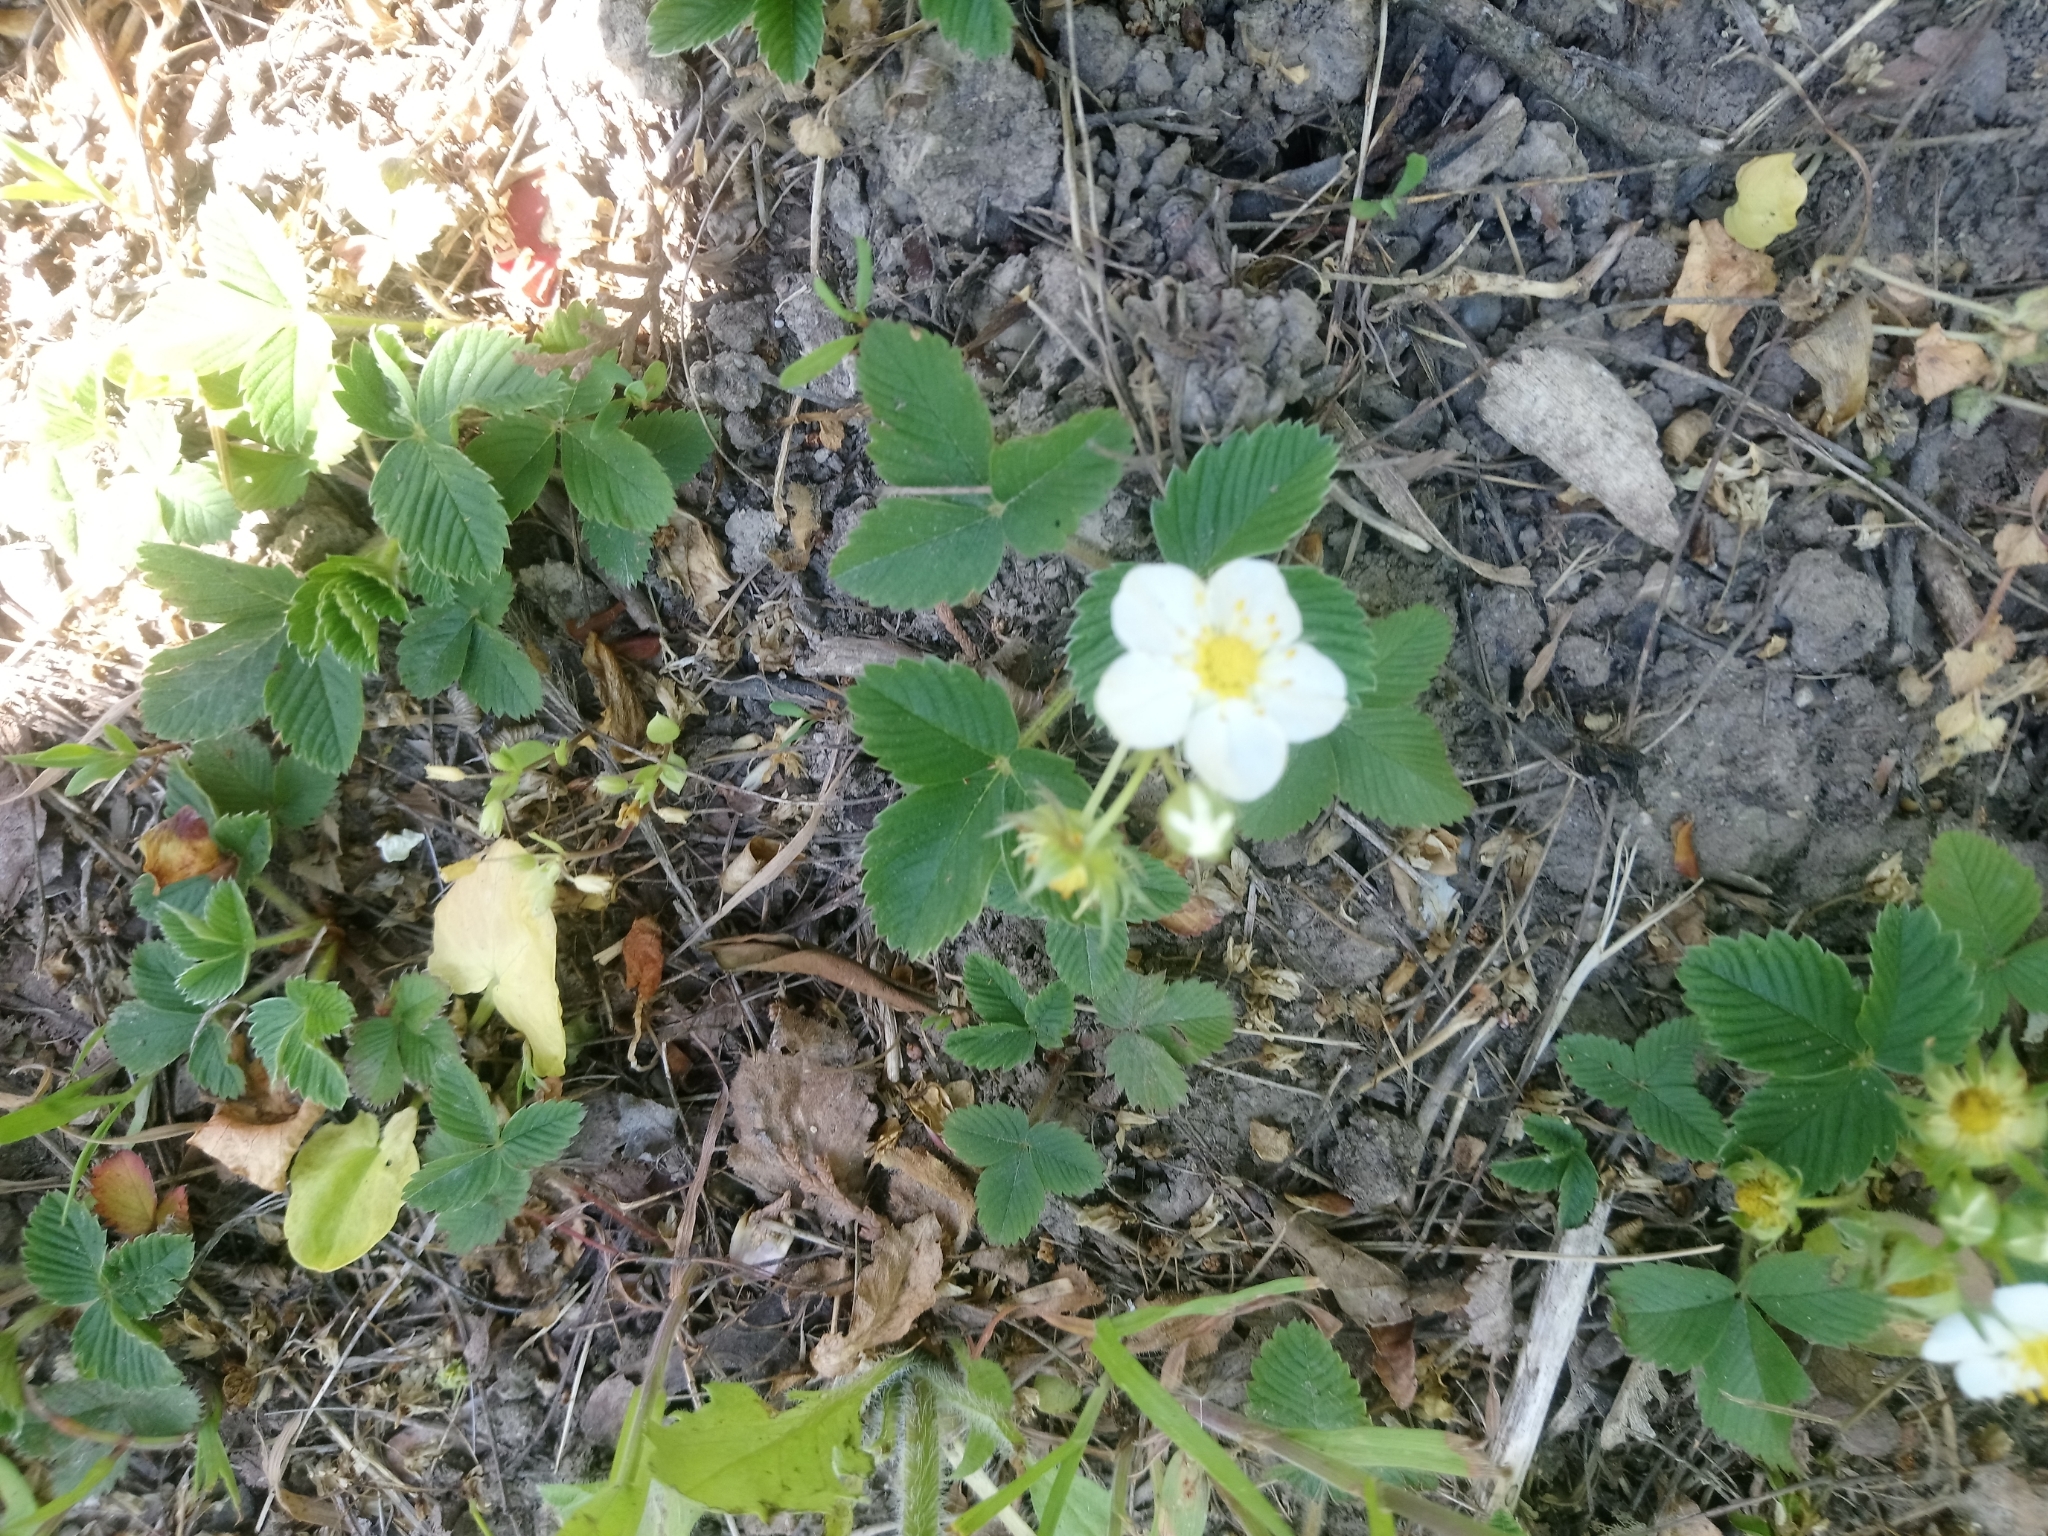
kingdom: Plantae
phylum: Tracheophyta
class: Magnoliopsida
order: Rosales
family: Rosaceae
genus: Fragaria
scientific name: Fragaria viridis
